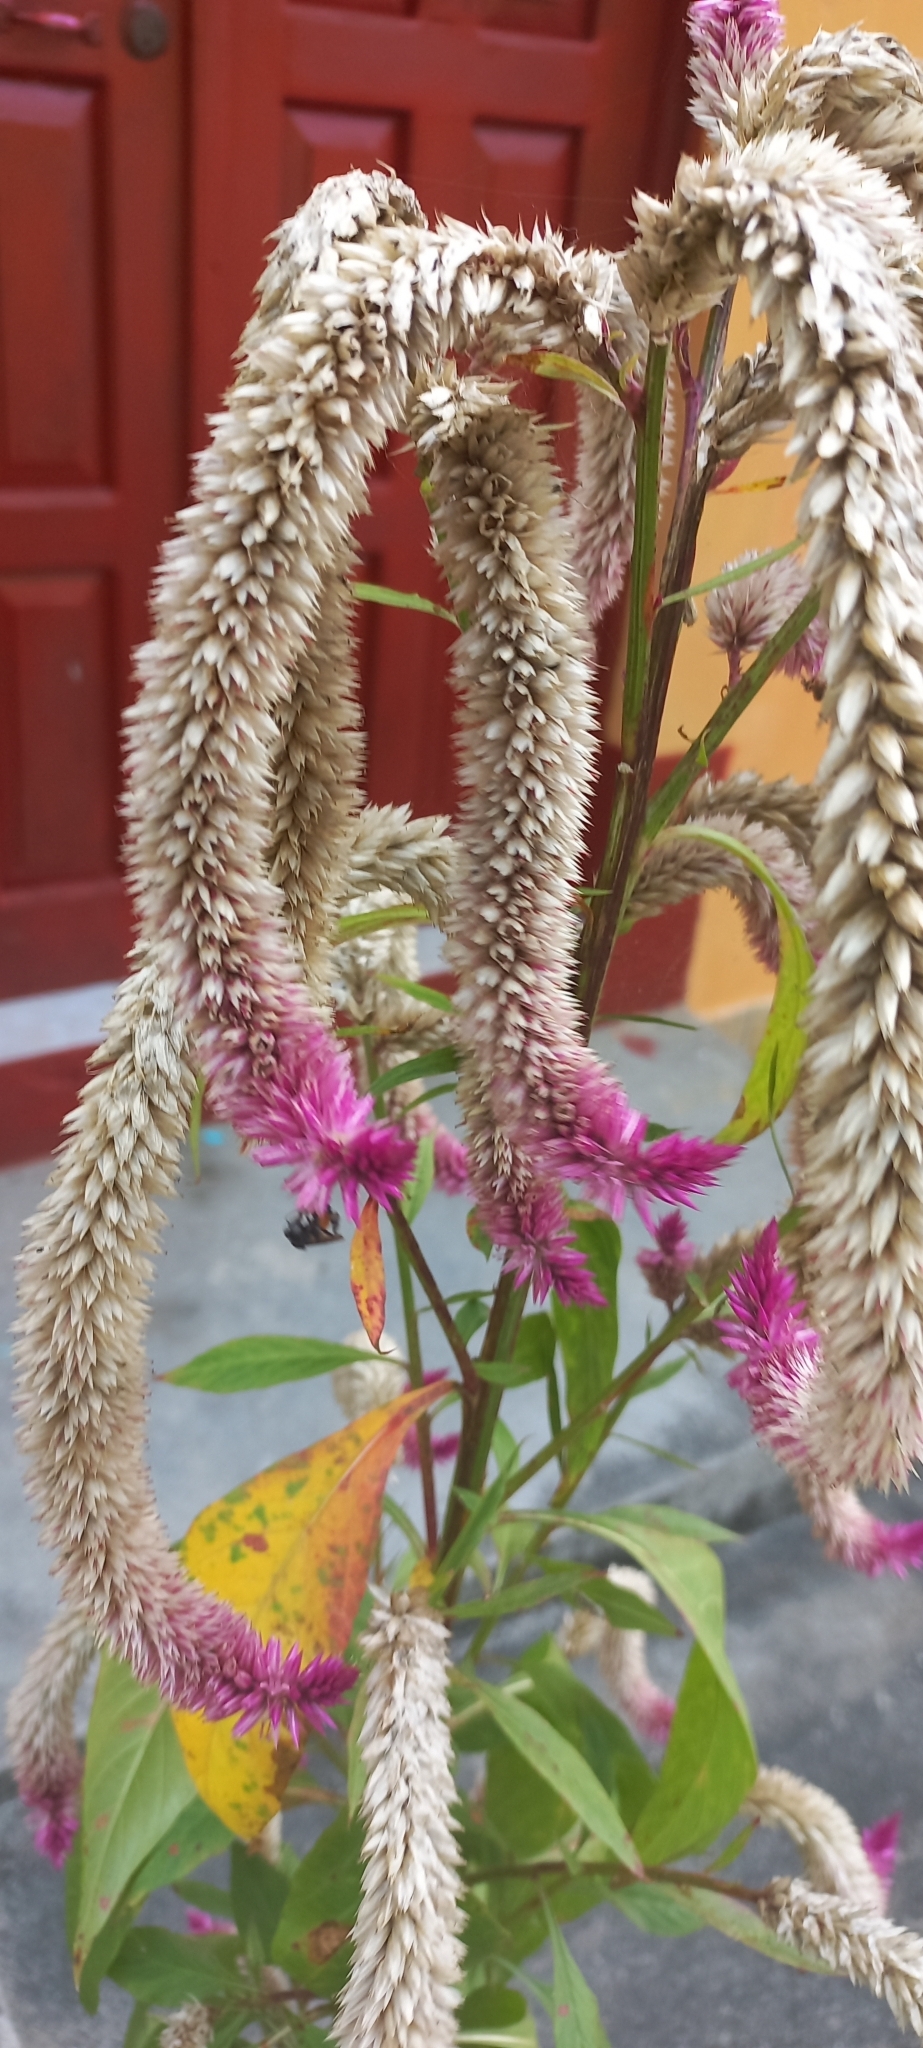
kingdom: Animalia
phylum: Arthropoda
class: Insecta
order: Hymenoptera
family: Apidae
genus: Trigona
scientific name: Trigona fulviventris
